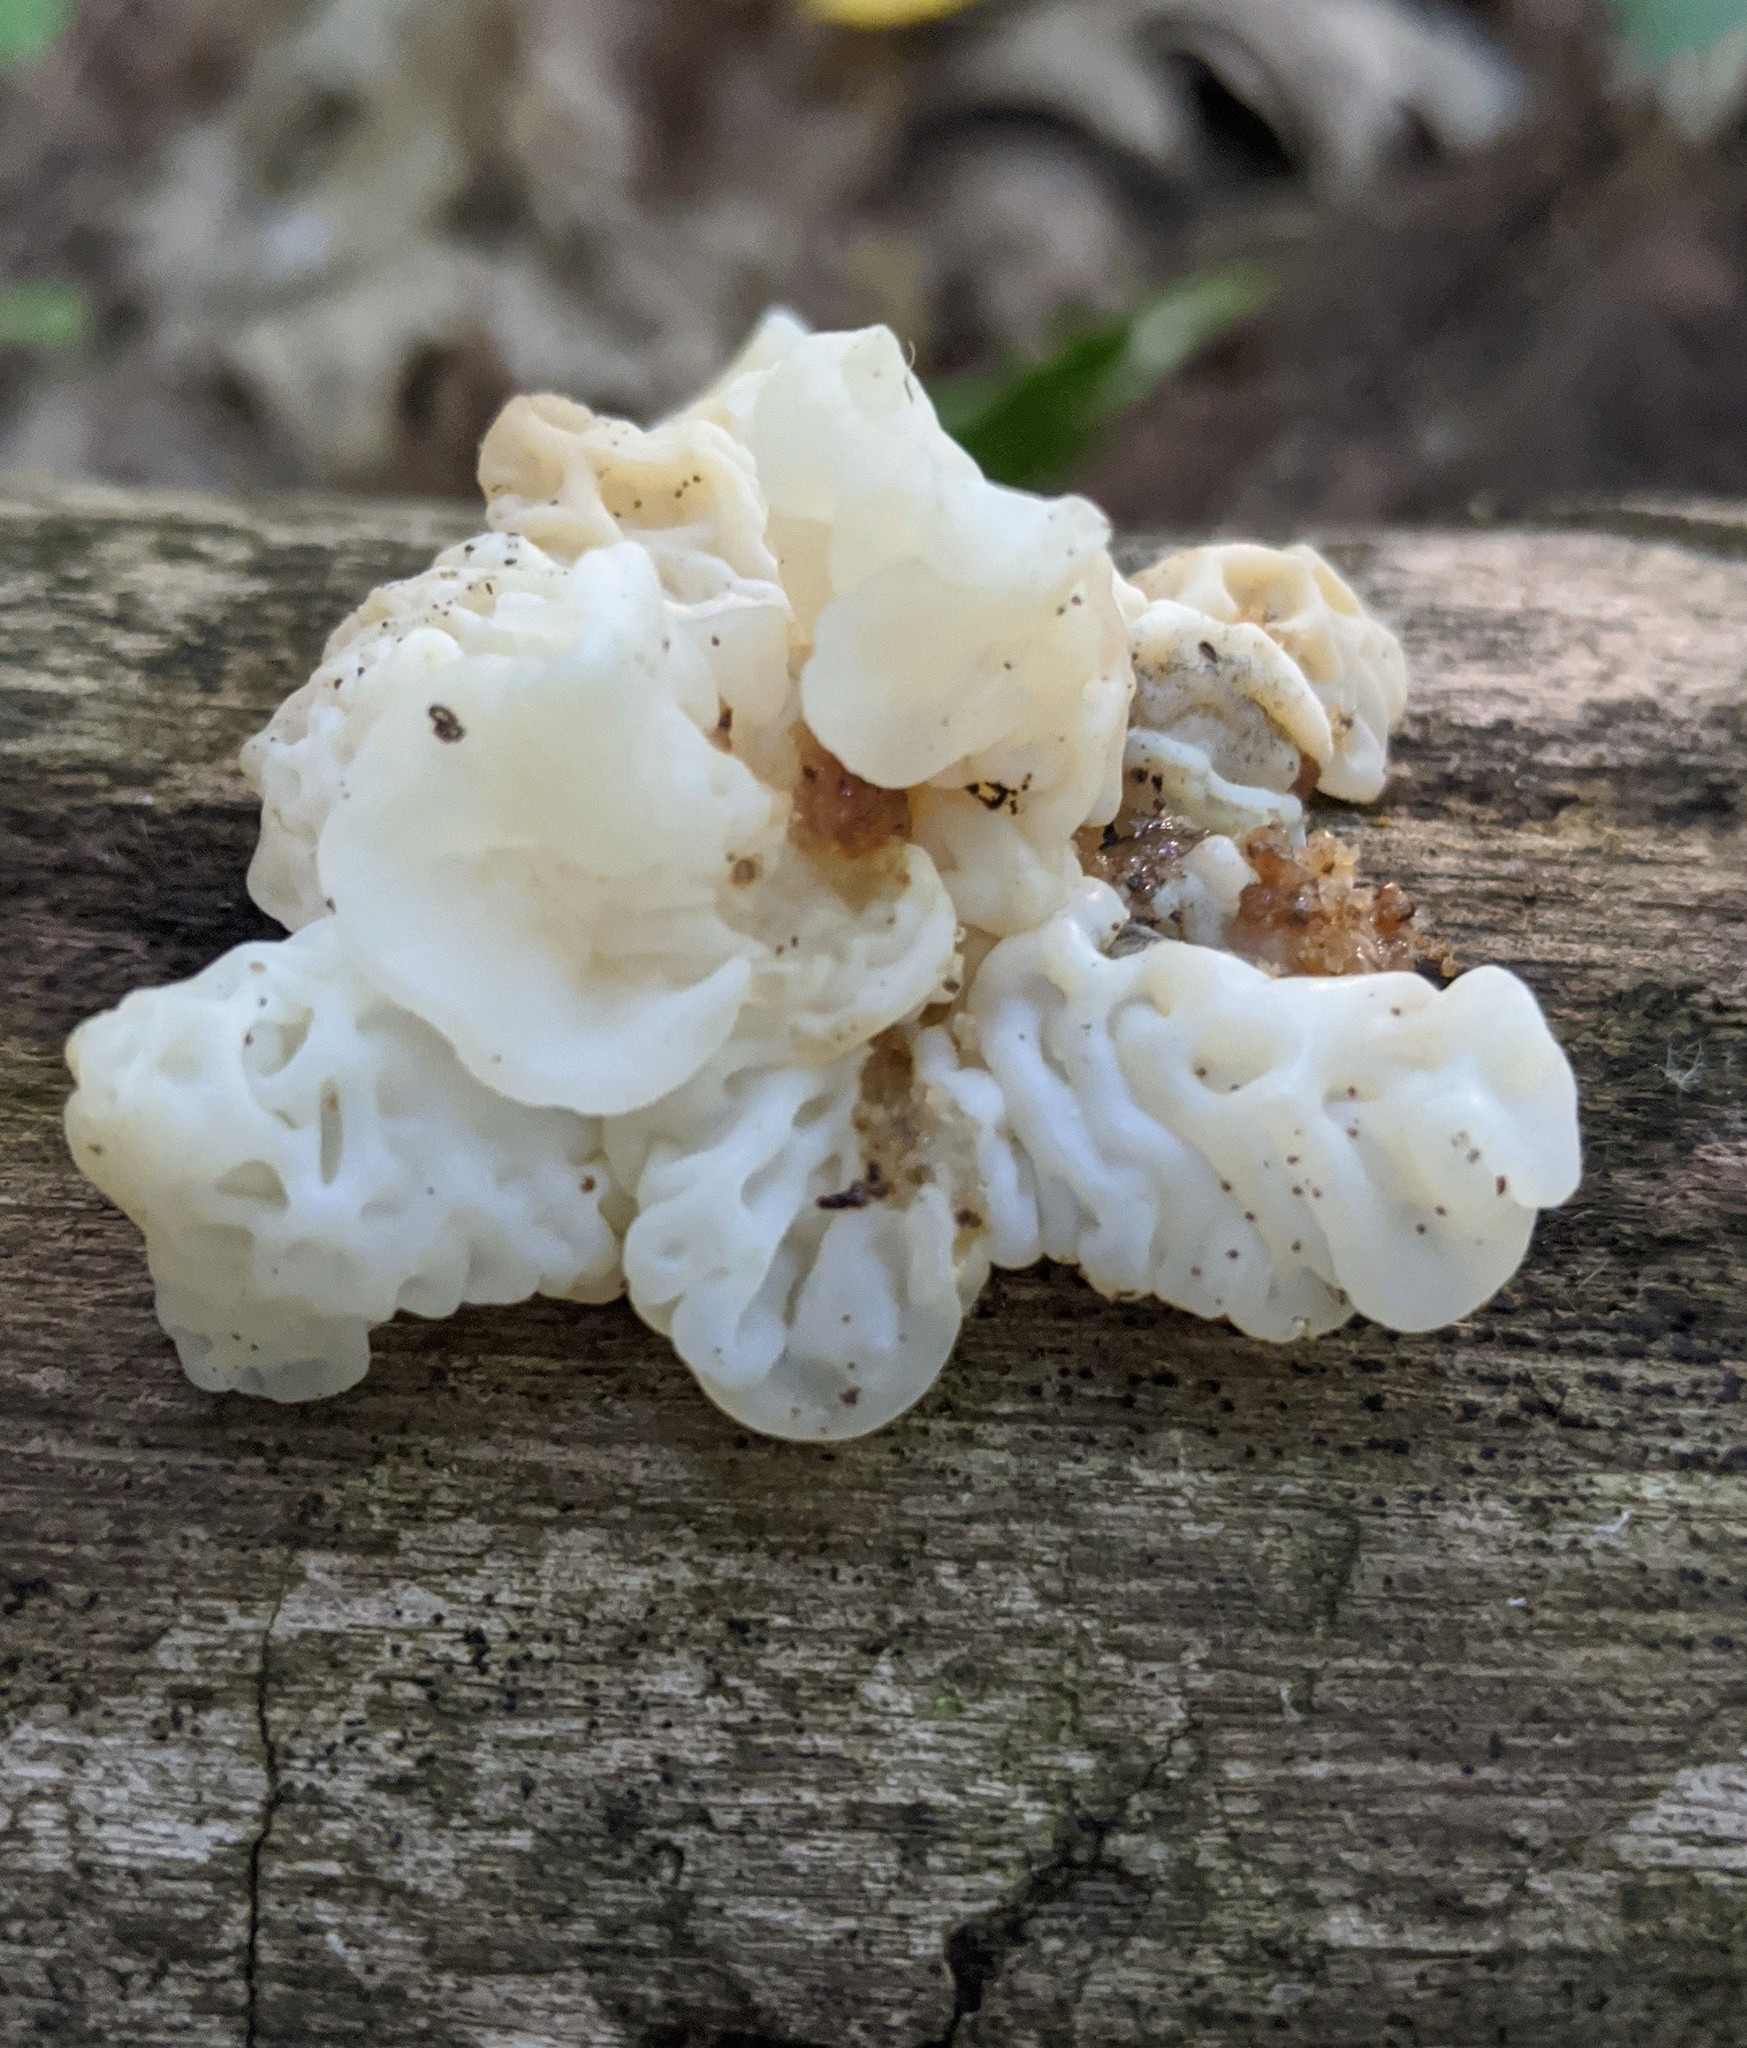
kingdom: Fungi
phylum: Basidiomycota
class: Agaricomycetes
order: Auriculariales
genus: Ductifera
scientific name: Ductifera pululahuana
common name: White jelly fungus
